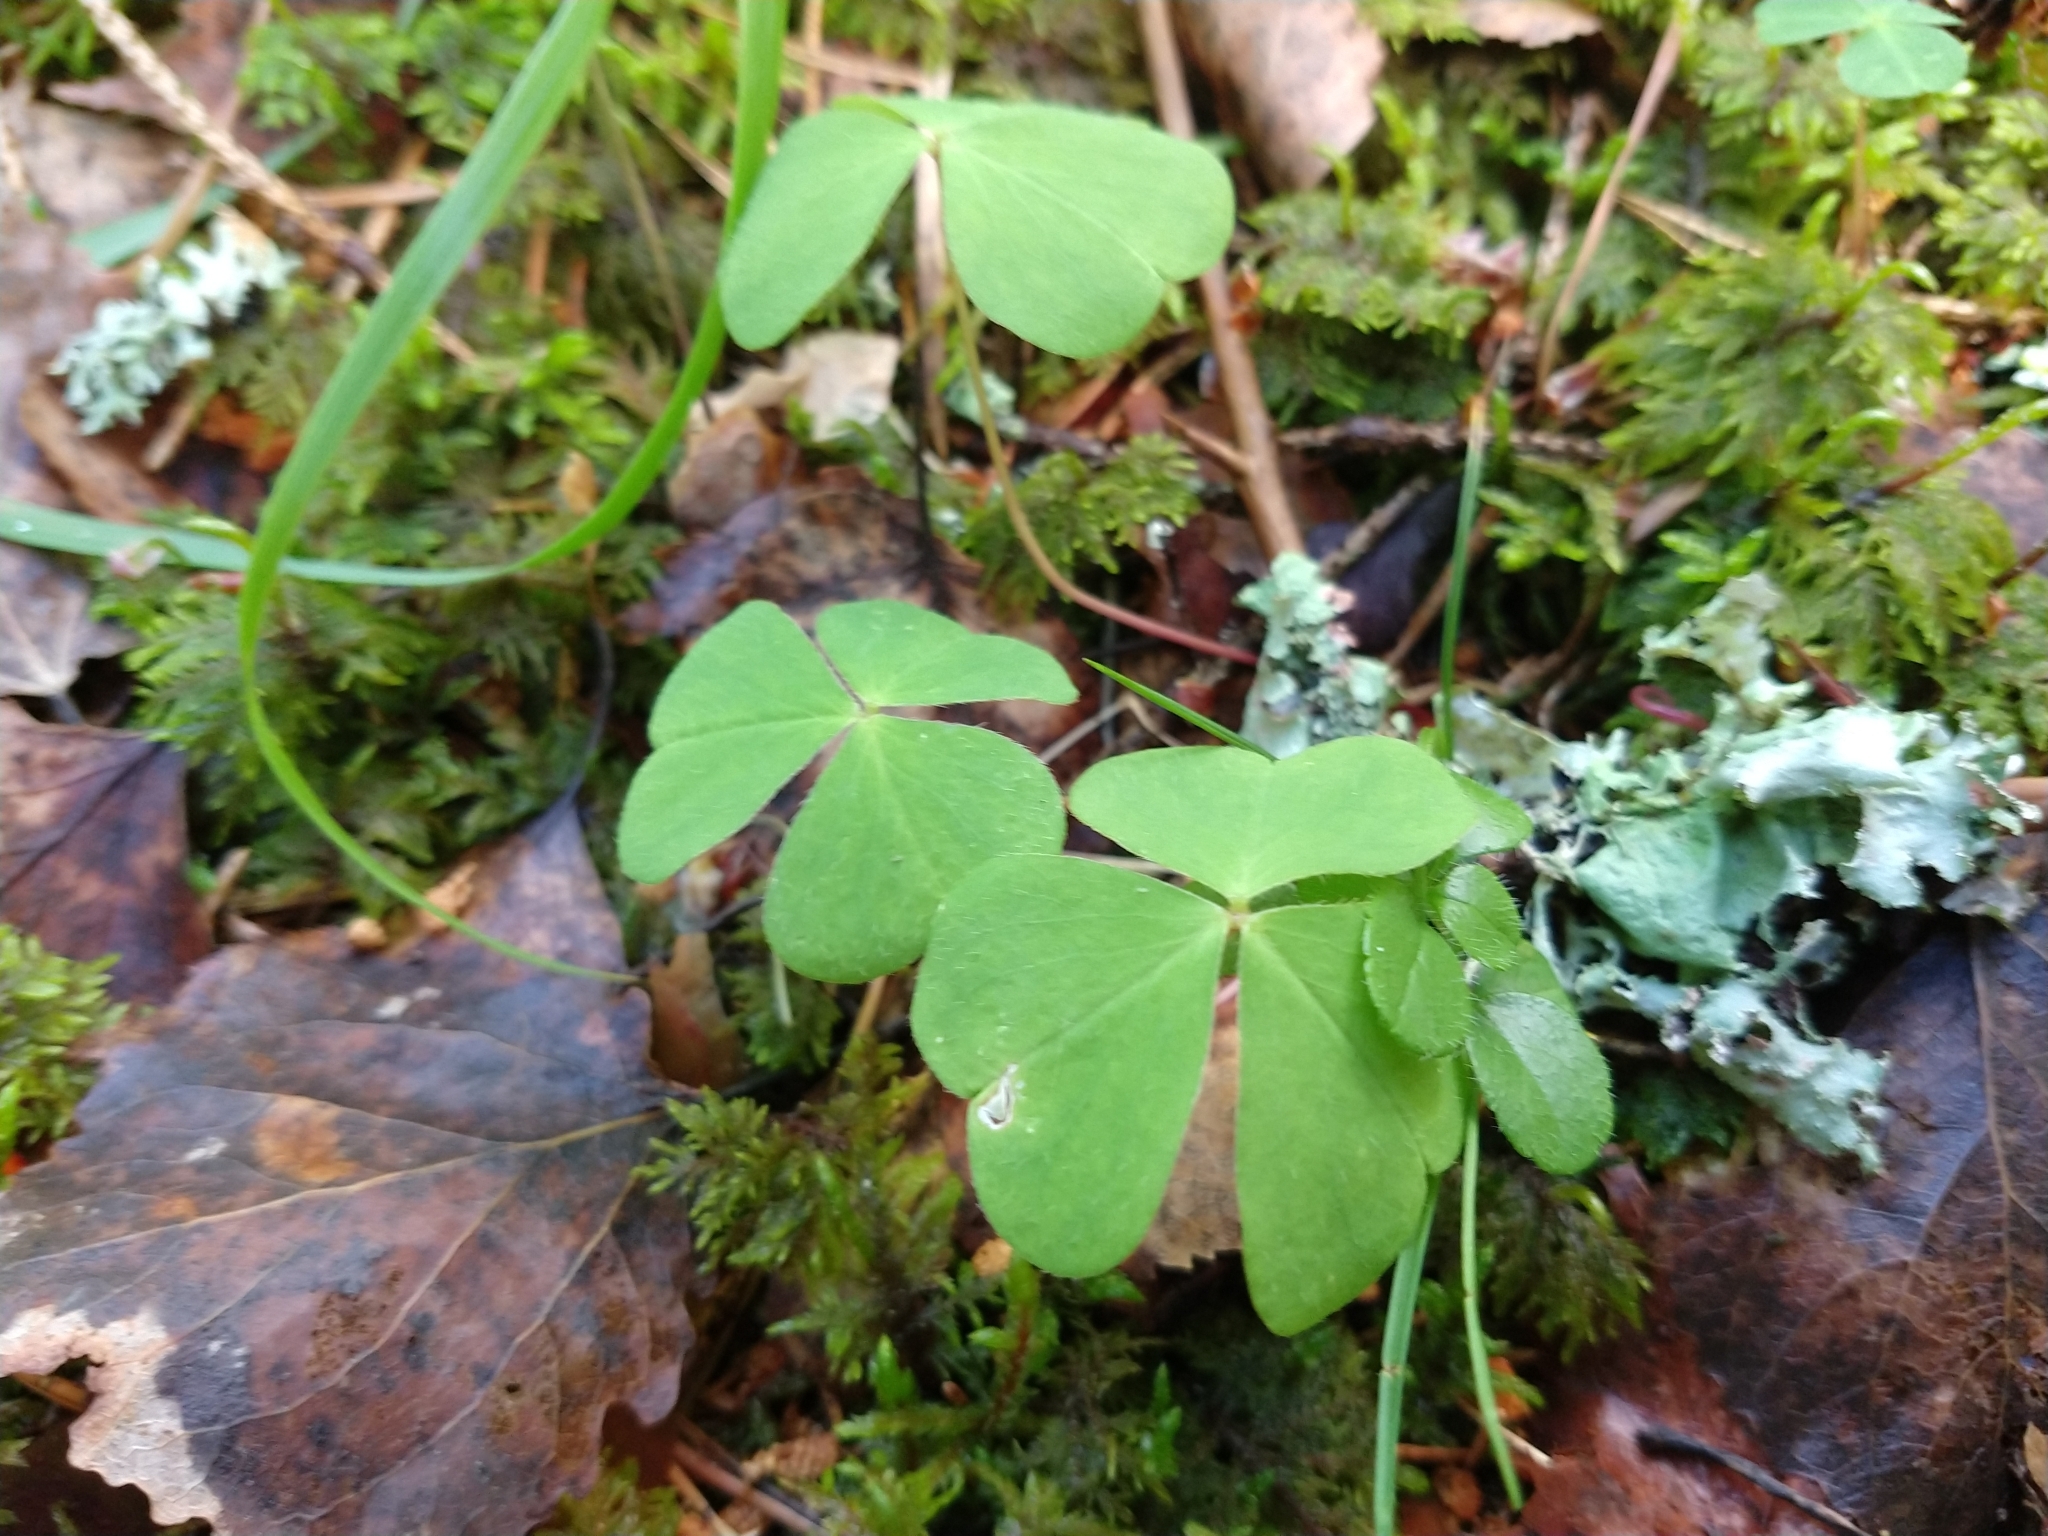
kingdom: Plantae
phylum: Tracheophyta
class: Magnoliopsida
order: Oxalidales
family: Oxalidaceae
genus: Oxalis
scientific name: Oxalis acetosella
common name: Wood-sorrel
